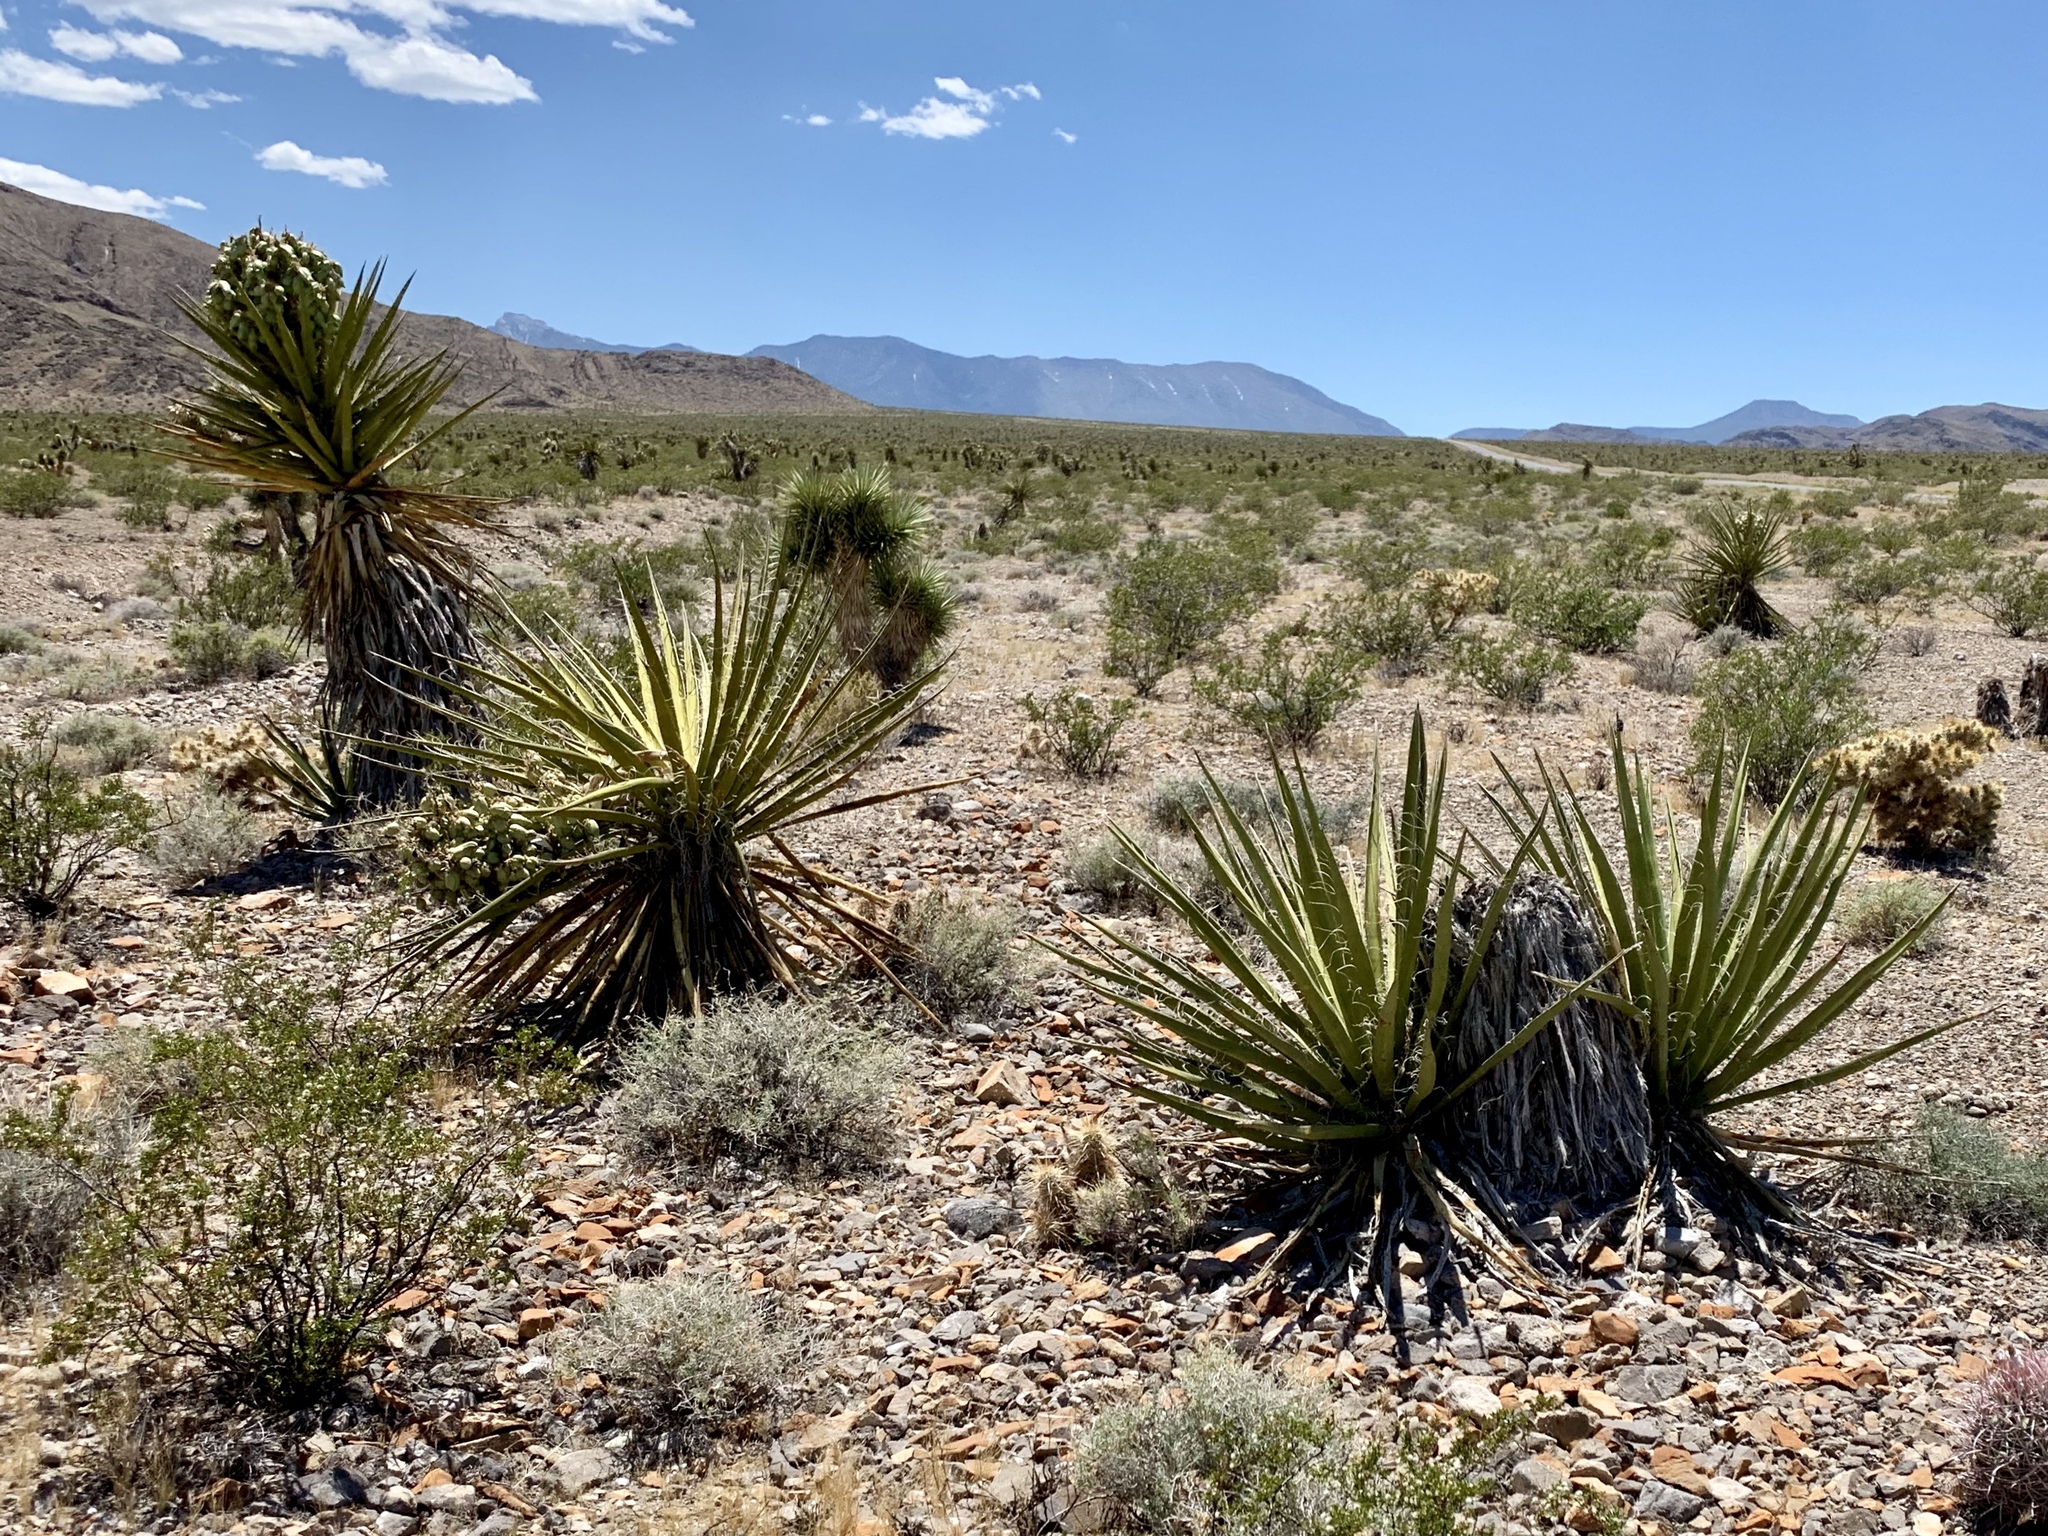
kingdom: Plantae
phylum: Tracheophyta
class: Liliopsida
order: Asparagales
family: Asparagaceae
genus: Yucca
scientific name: Yucca schidigera
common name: Mojave yucca
